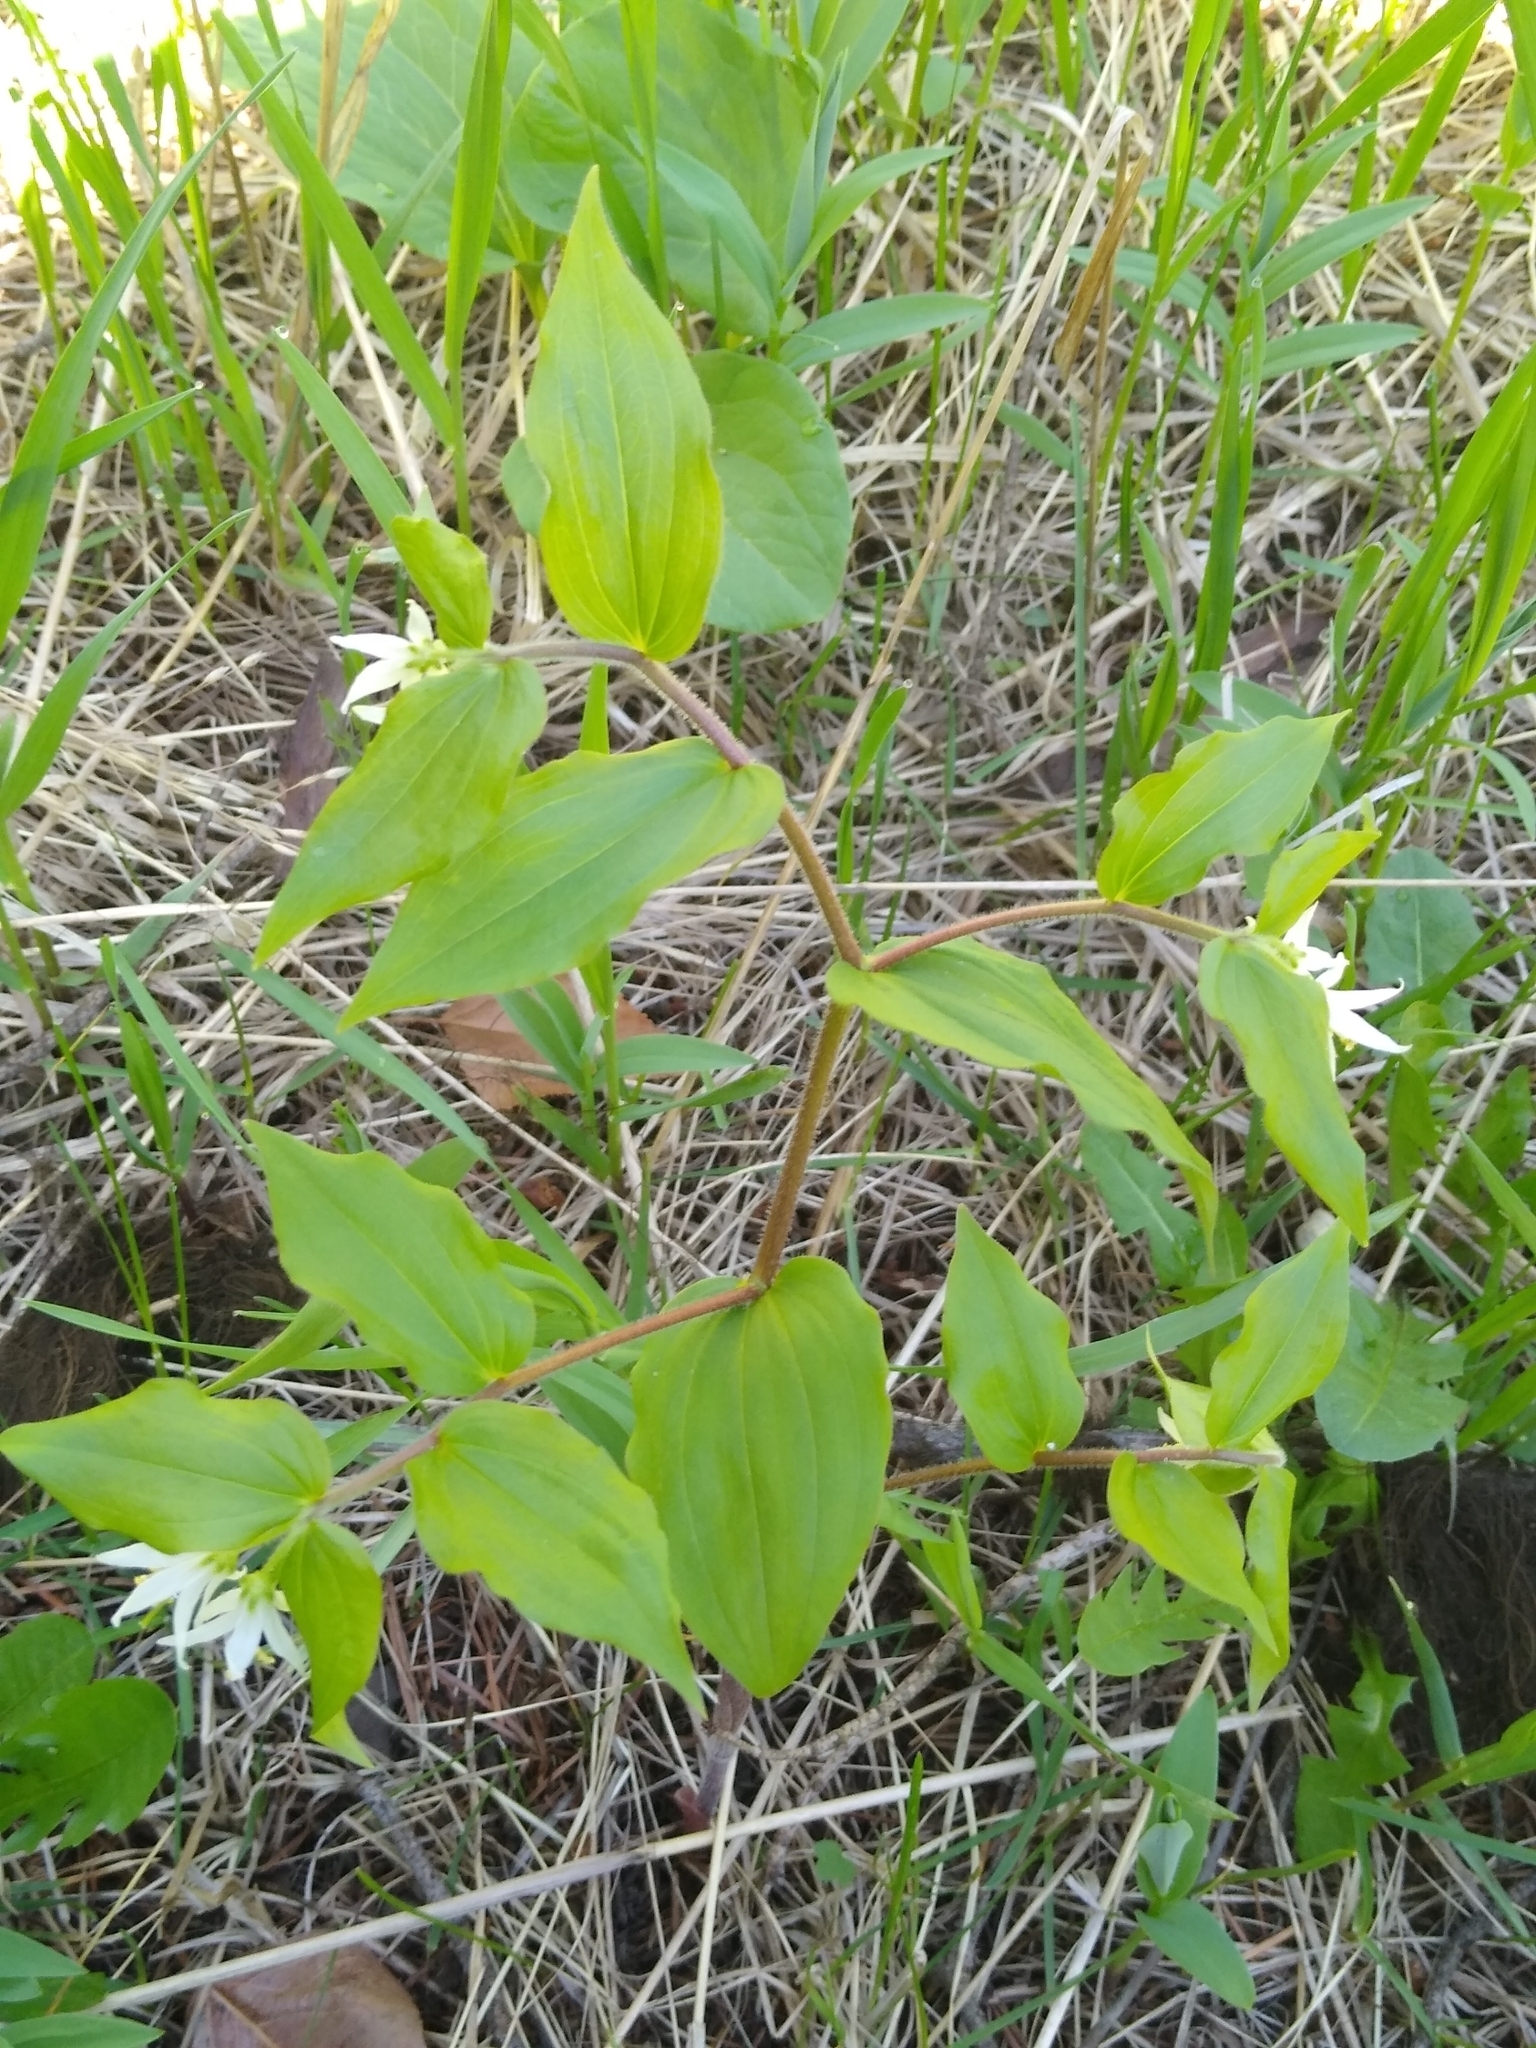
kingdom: Plantae
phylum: Tracheophyta
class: Liliopsida
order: Liliales
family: Liliaceae
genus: Prosartes
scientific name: Prosartes trachycarpa
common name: Rough-fruit fairy-bells
